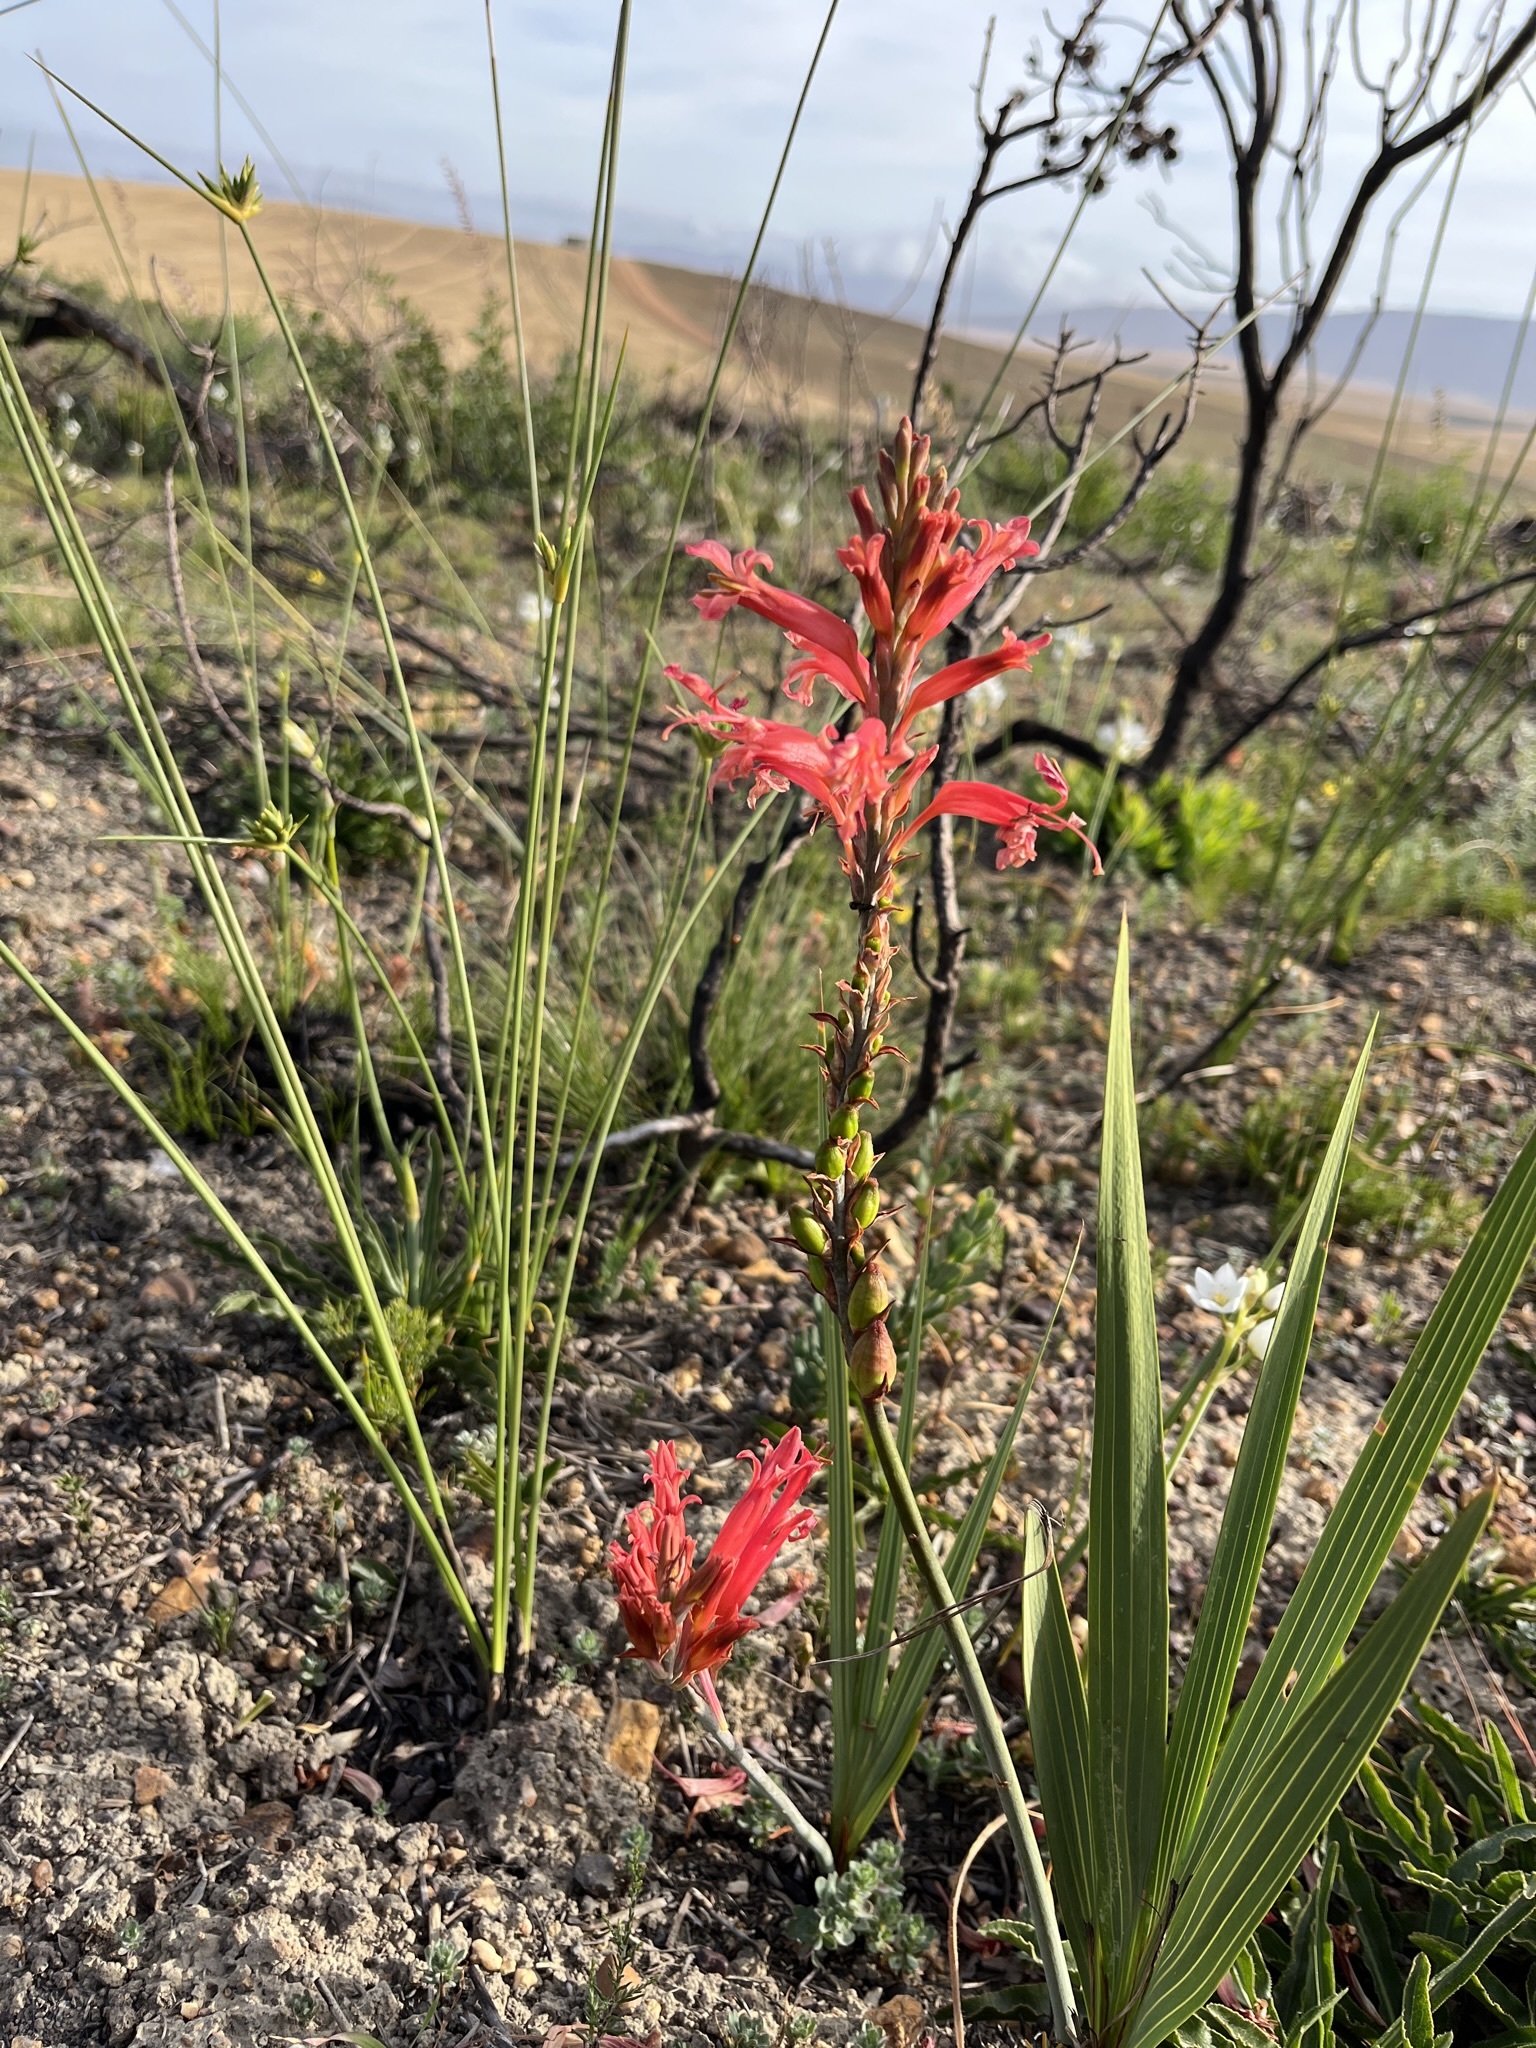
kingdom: Plantae
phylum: Tracheophyta
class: Liliopsida
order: Asparagales
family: Iridaceae
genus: Tritoniopsis
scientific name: Tritoniopsis antholyza
